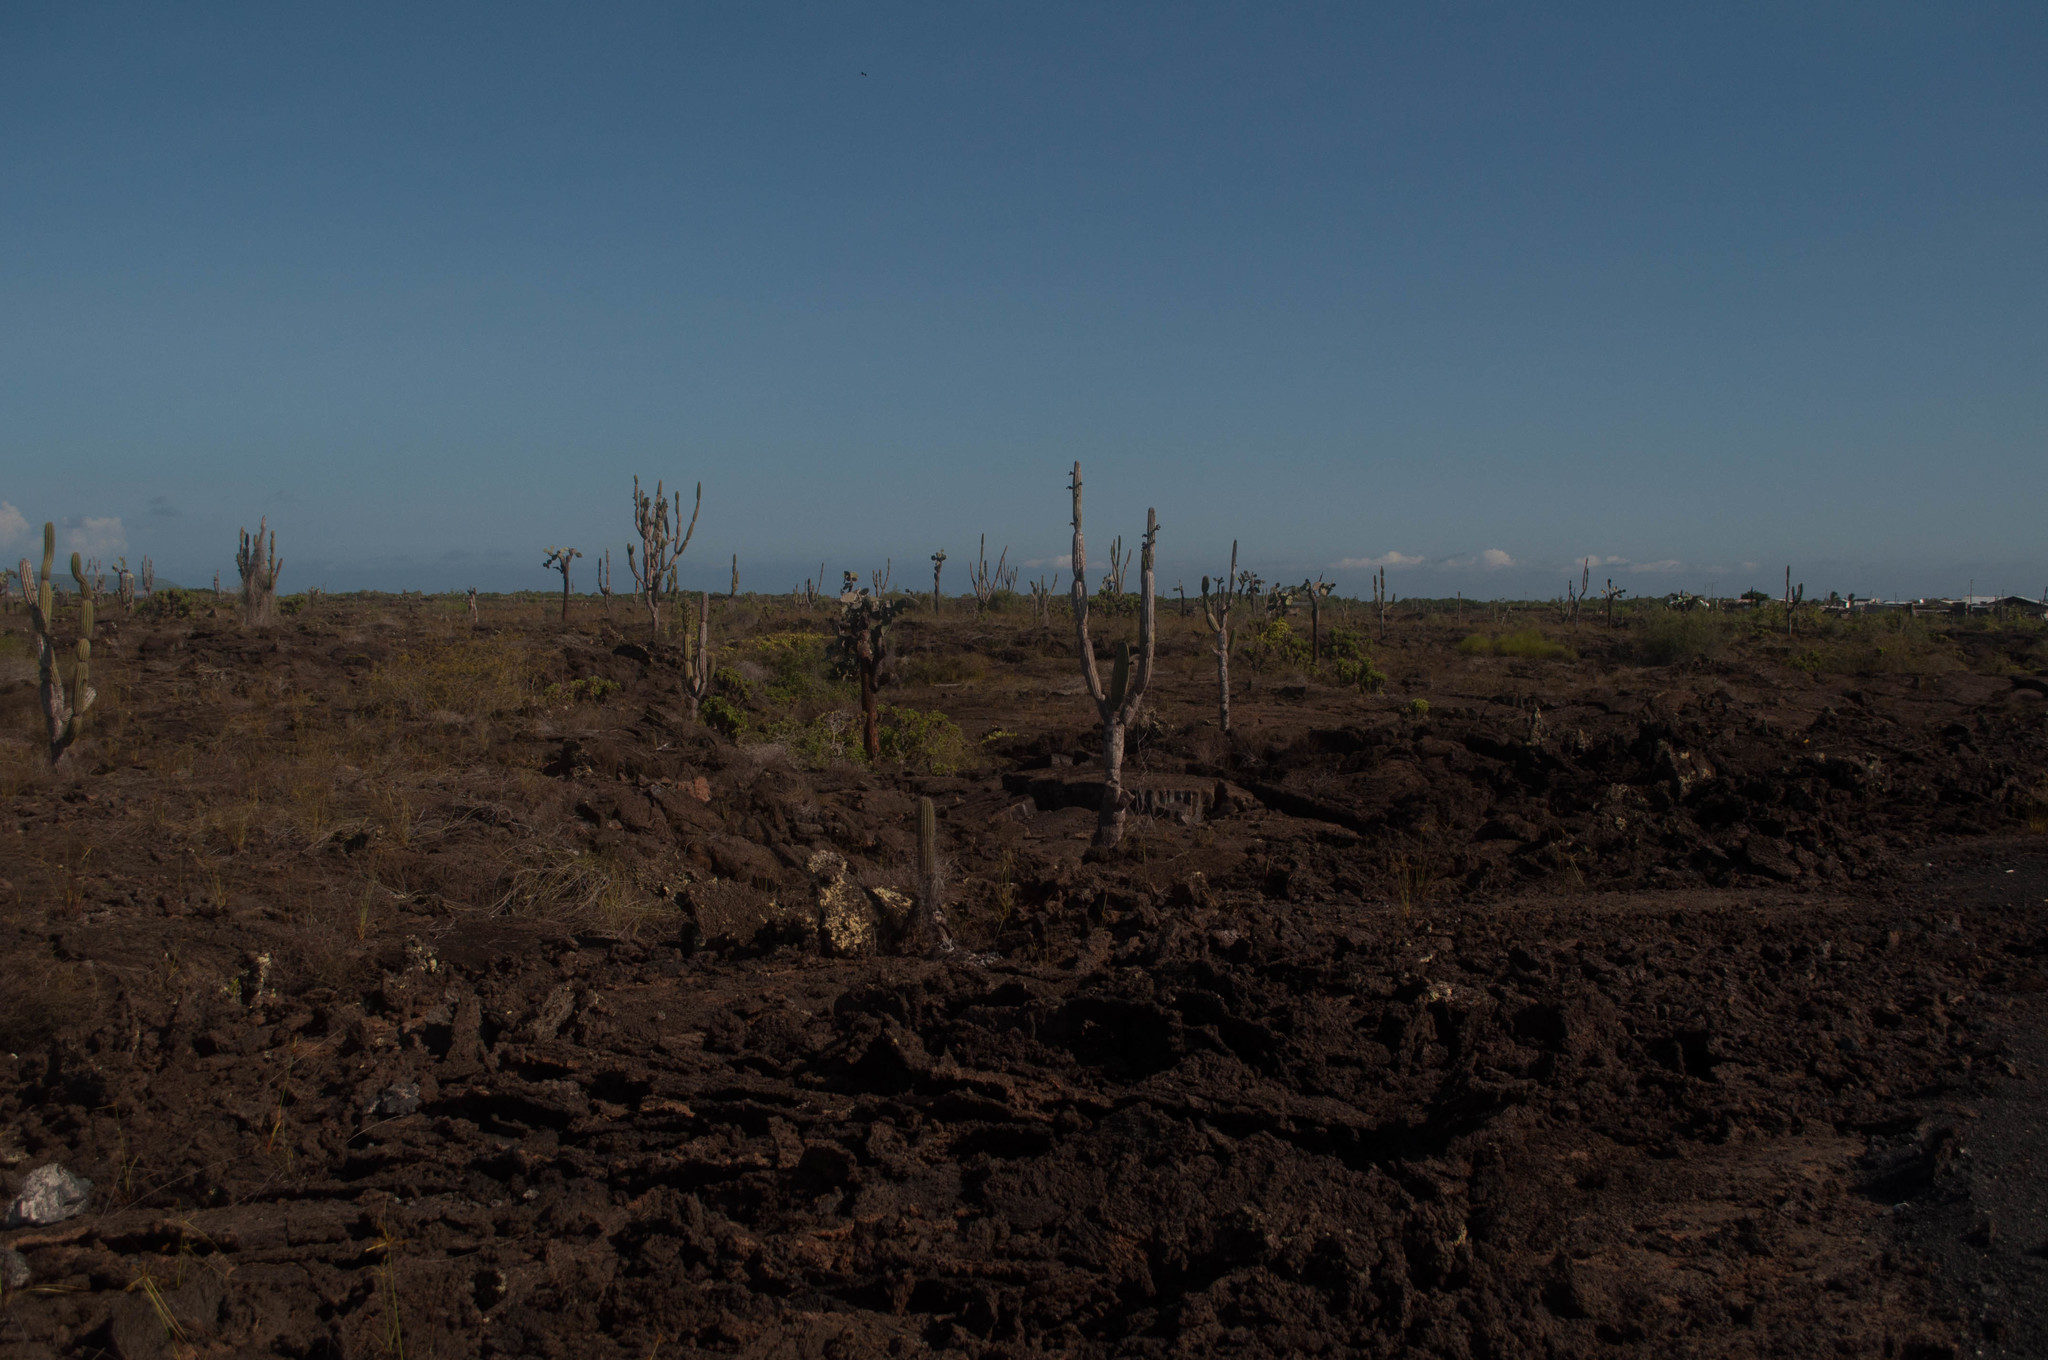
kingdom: Plantae
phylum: Tracheophyta
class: Magnoliopsida
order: Caryophyllales
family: Cactaceae
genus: Opuntia
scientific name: Opuntia galapageia
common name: Galápagos prickly pear
